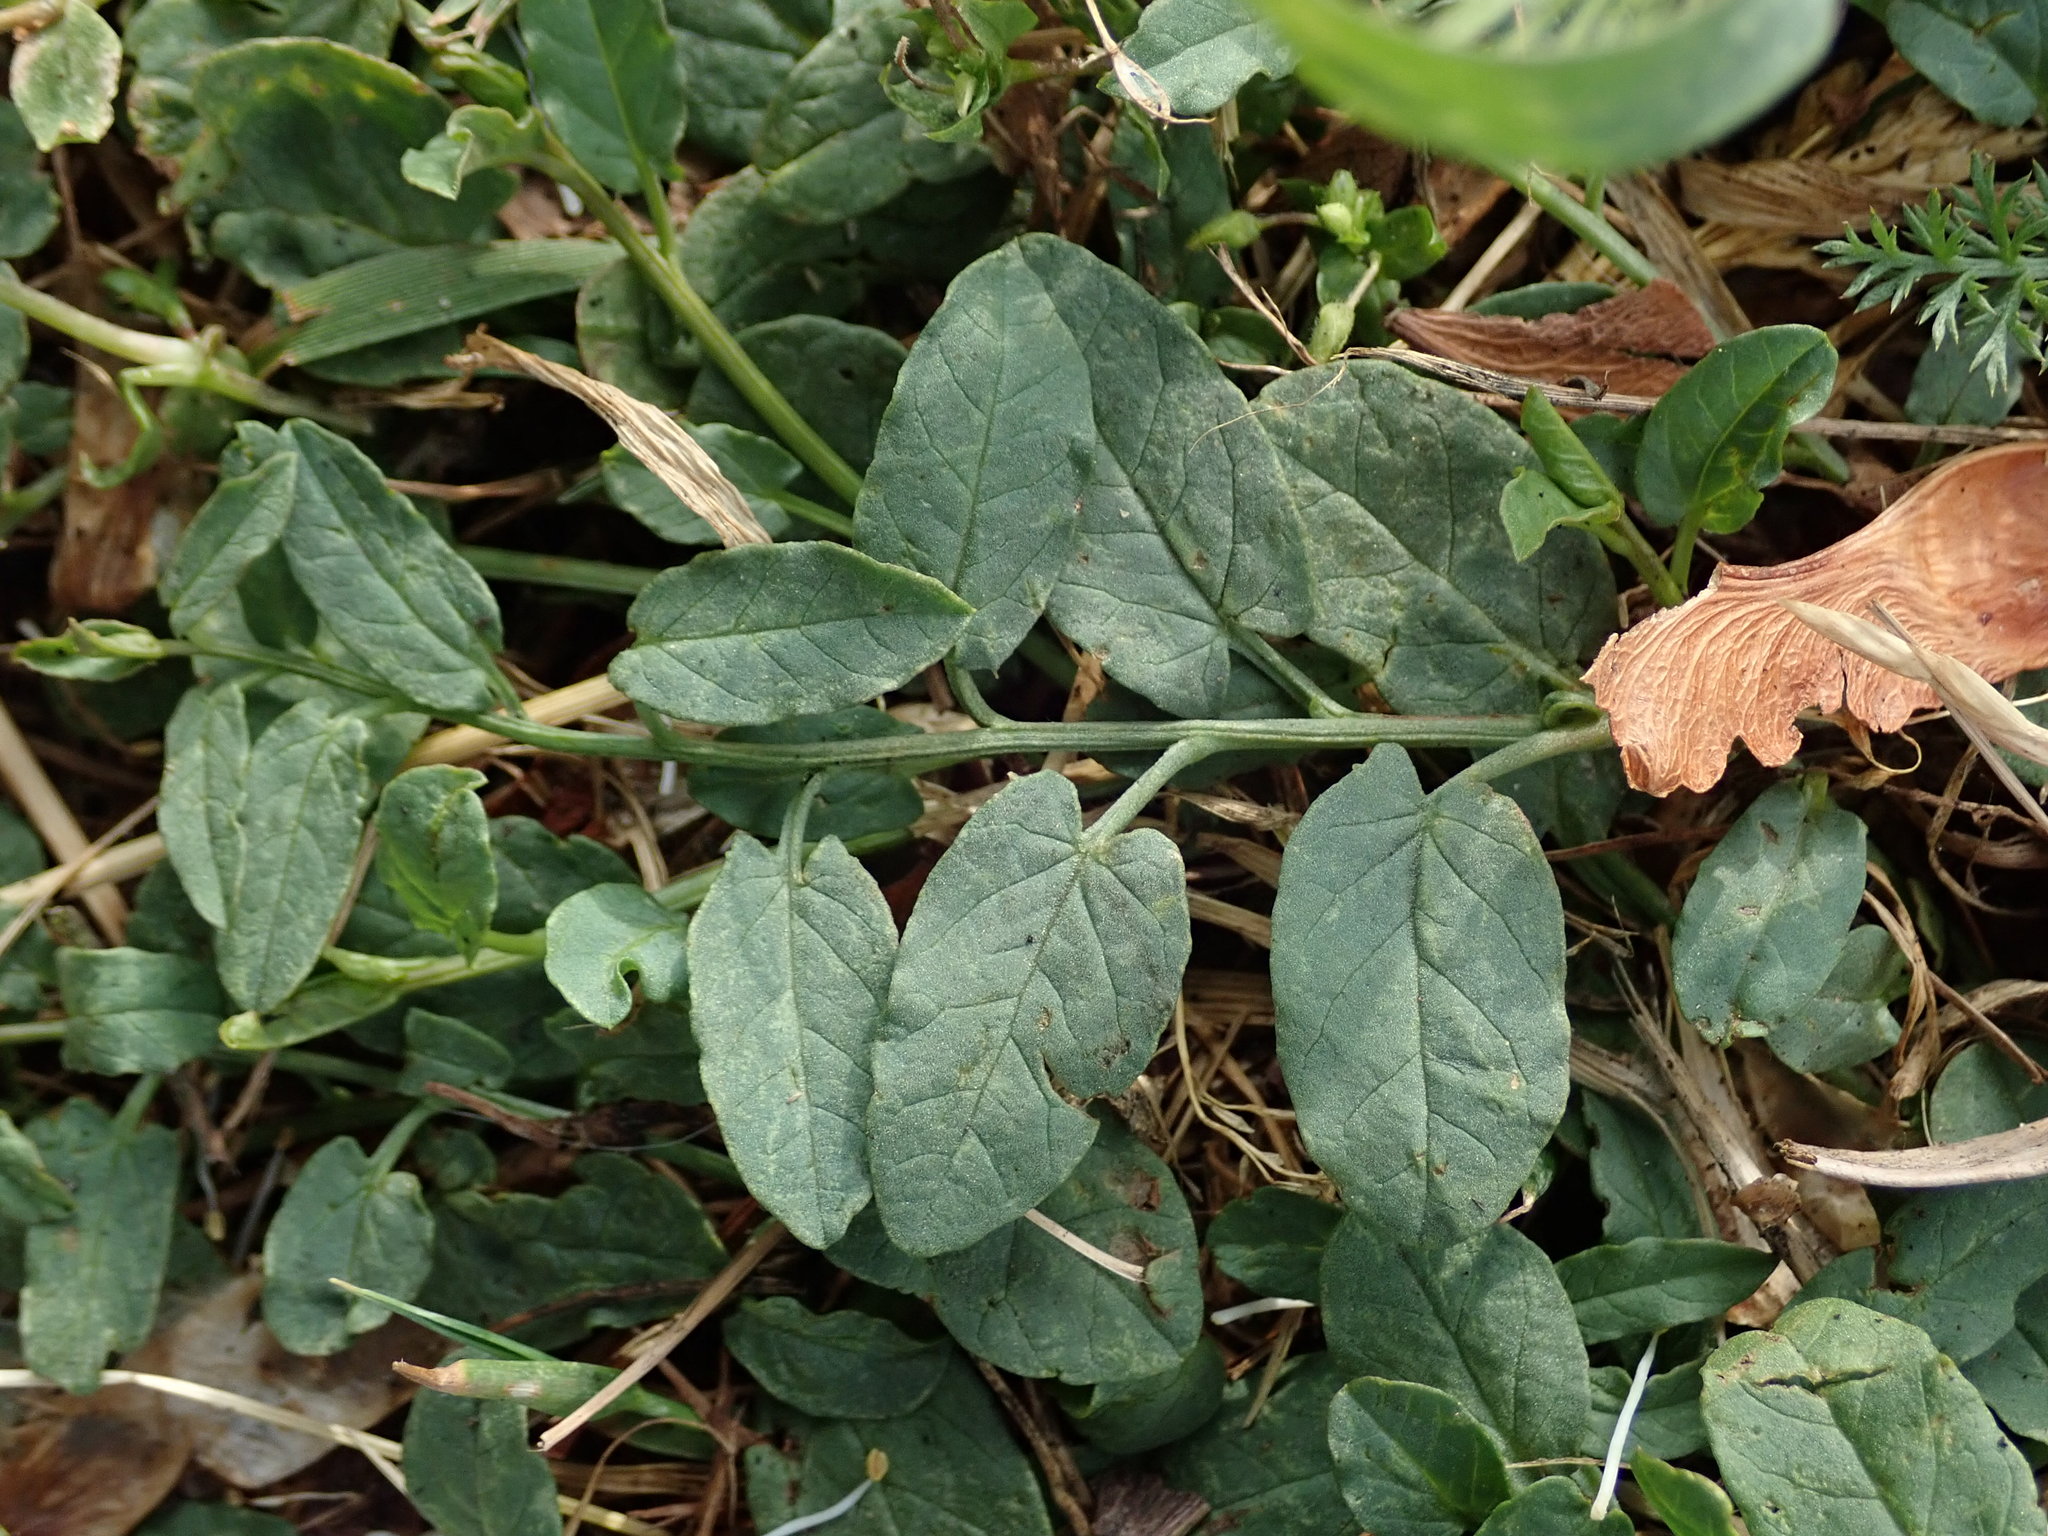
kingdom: Plantae
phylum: Tracheophyta
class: Magnoliopsida
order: Solanales
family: Convolvulaceae
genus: Convolvulus
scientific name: Convolvulus arvensis
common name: Field bindweed
